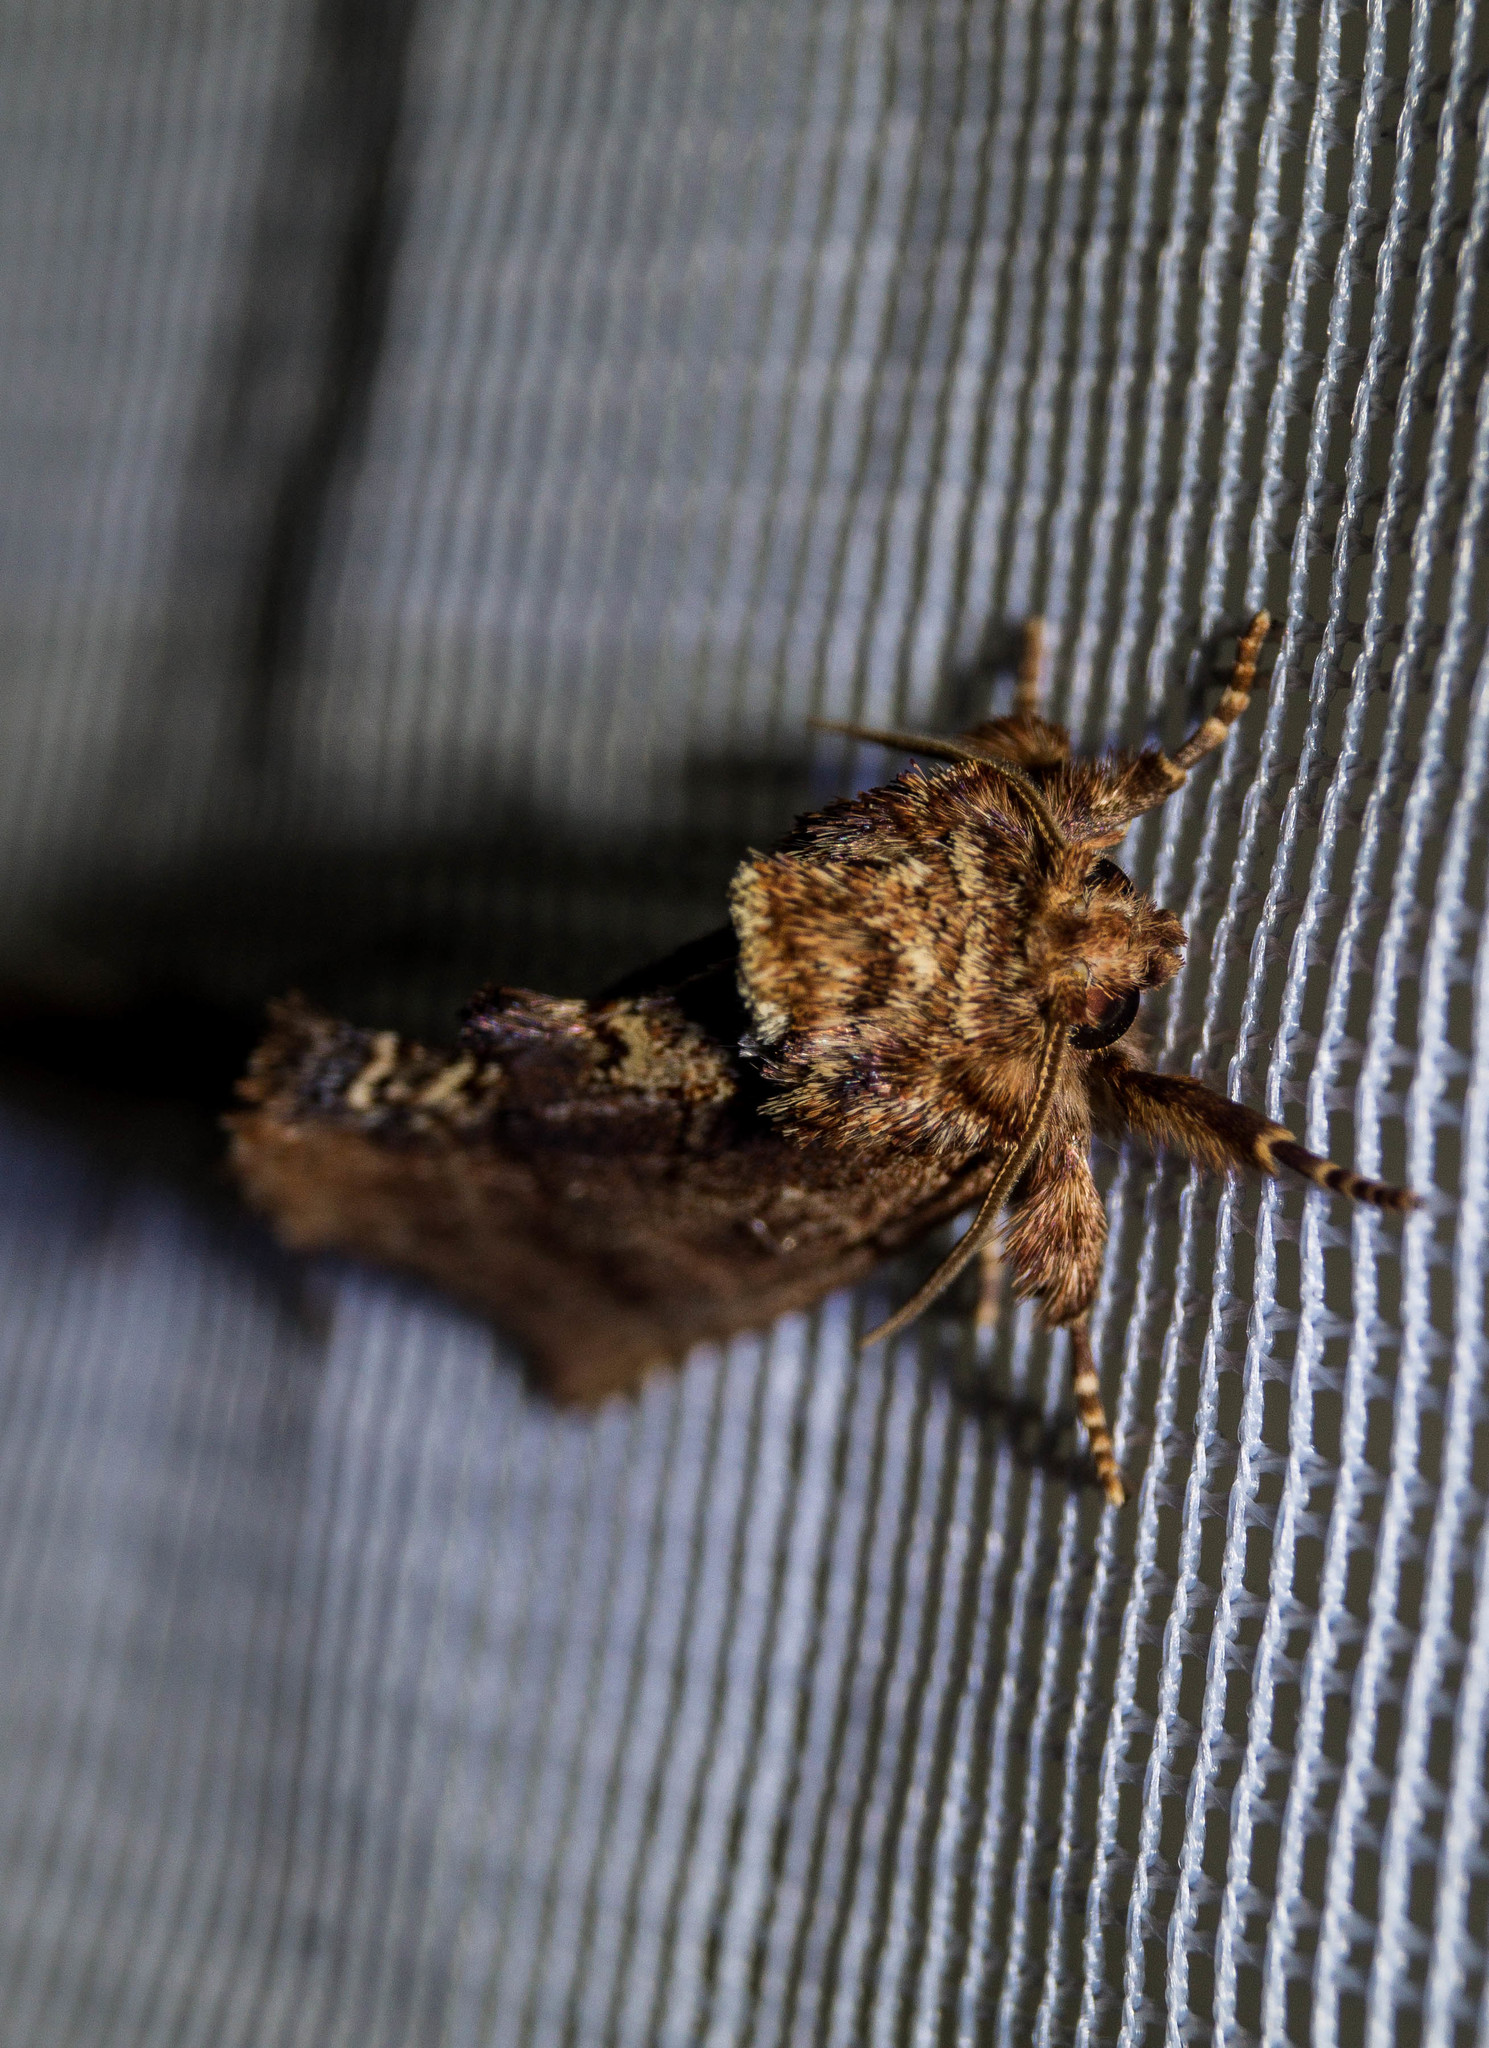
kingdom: Animalia
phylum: Arthropoda
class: Insecta
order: Lepidoptera
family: Notodontidae
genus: Ptilodon
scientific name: Ptilodon capucina
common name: Coxcomb prominent
